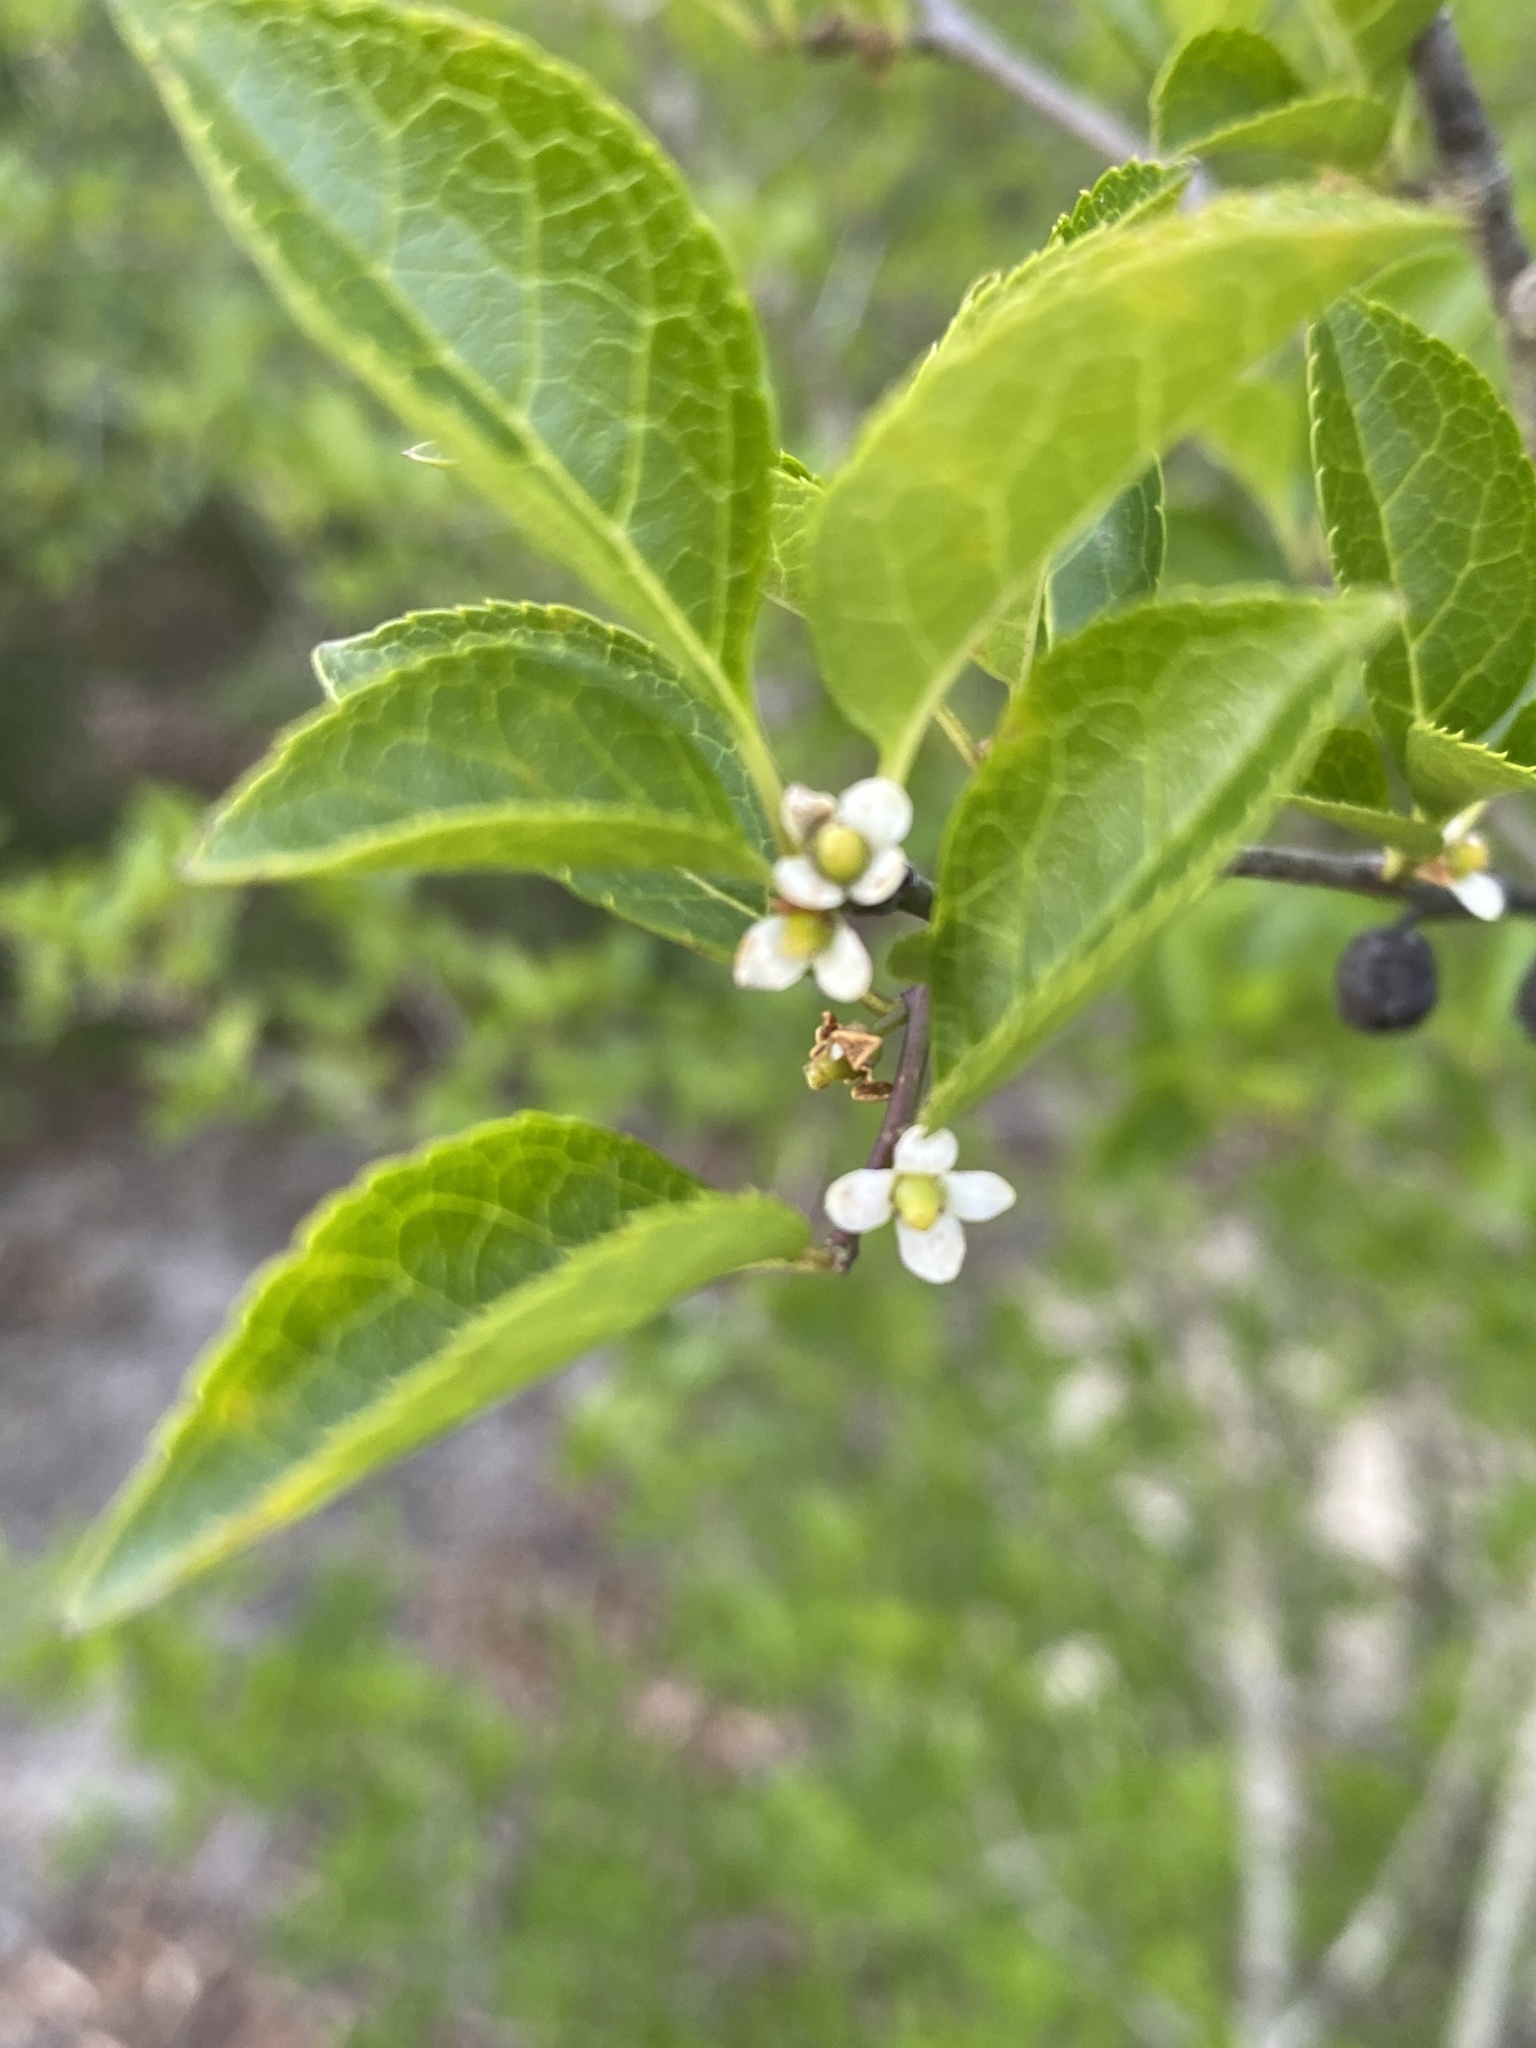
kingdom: Plantae
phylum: Tracheophyta
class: Magnoliopsida
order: Aquifoliales
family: Aquifoliaceae
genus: Ilex
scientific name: Ilex ambigua
